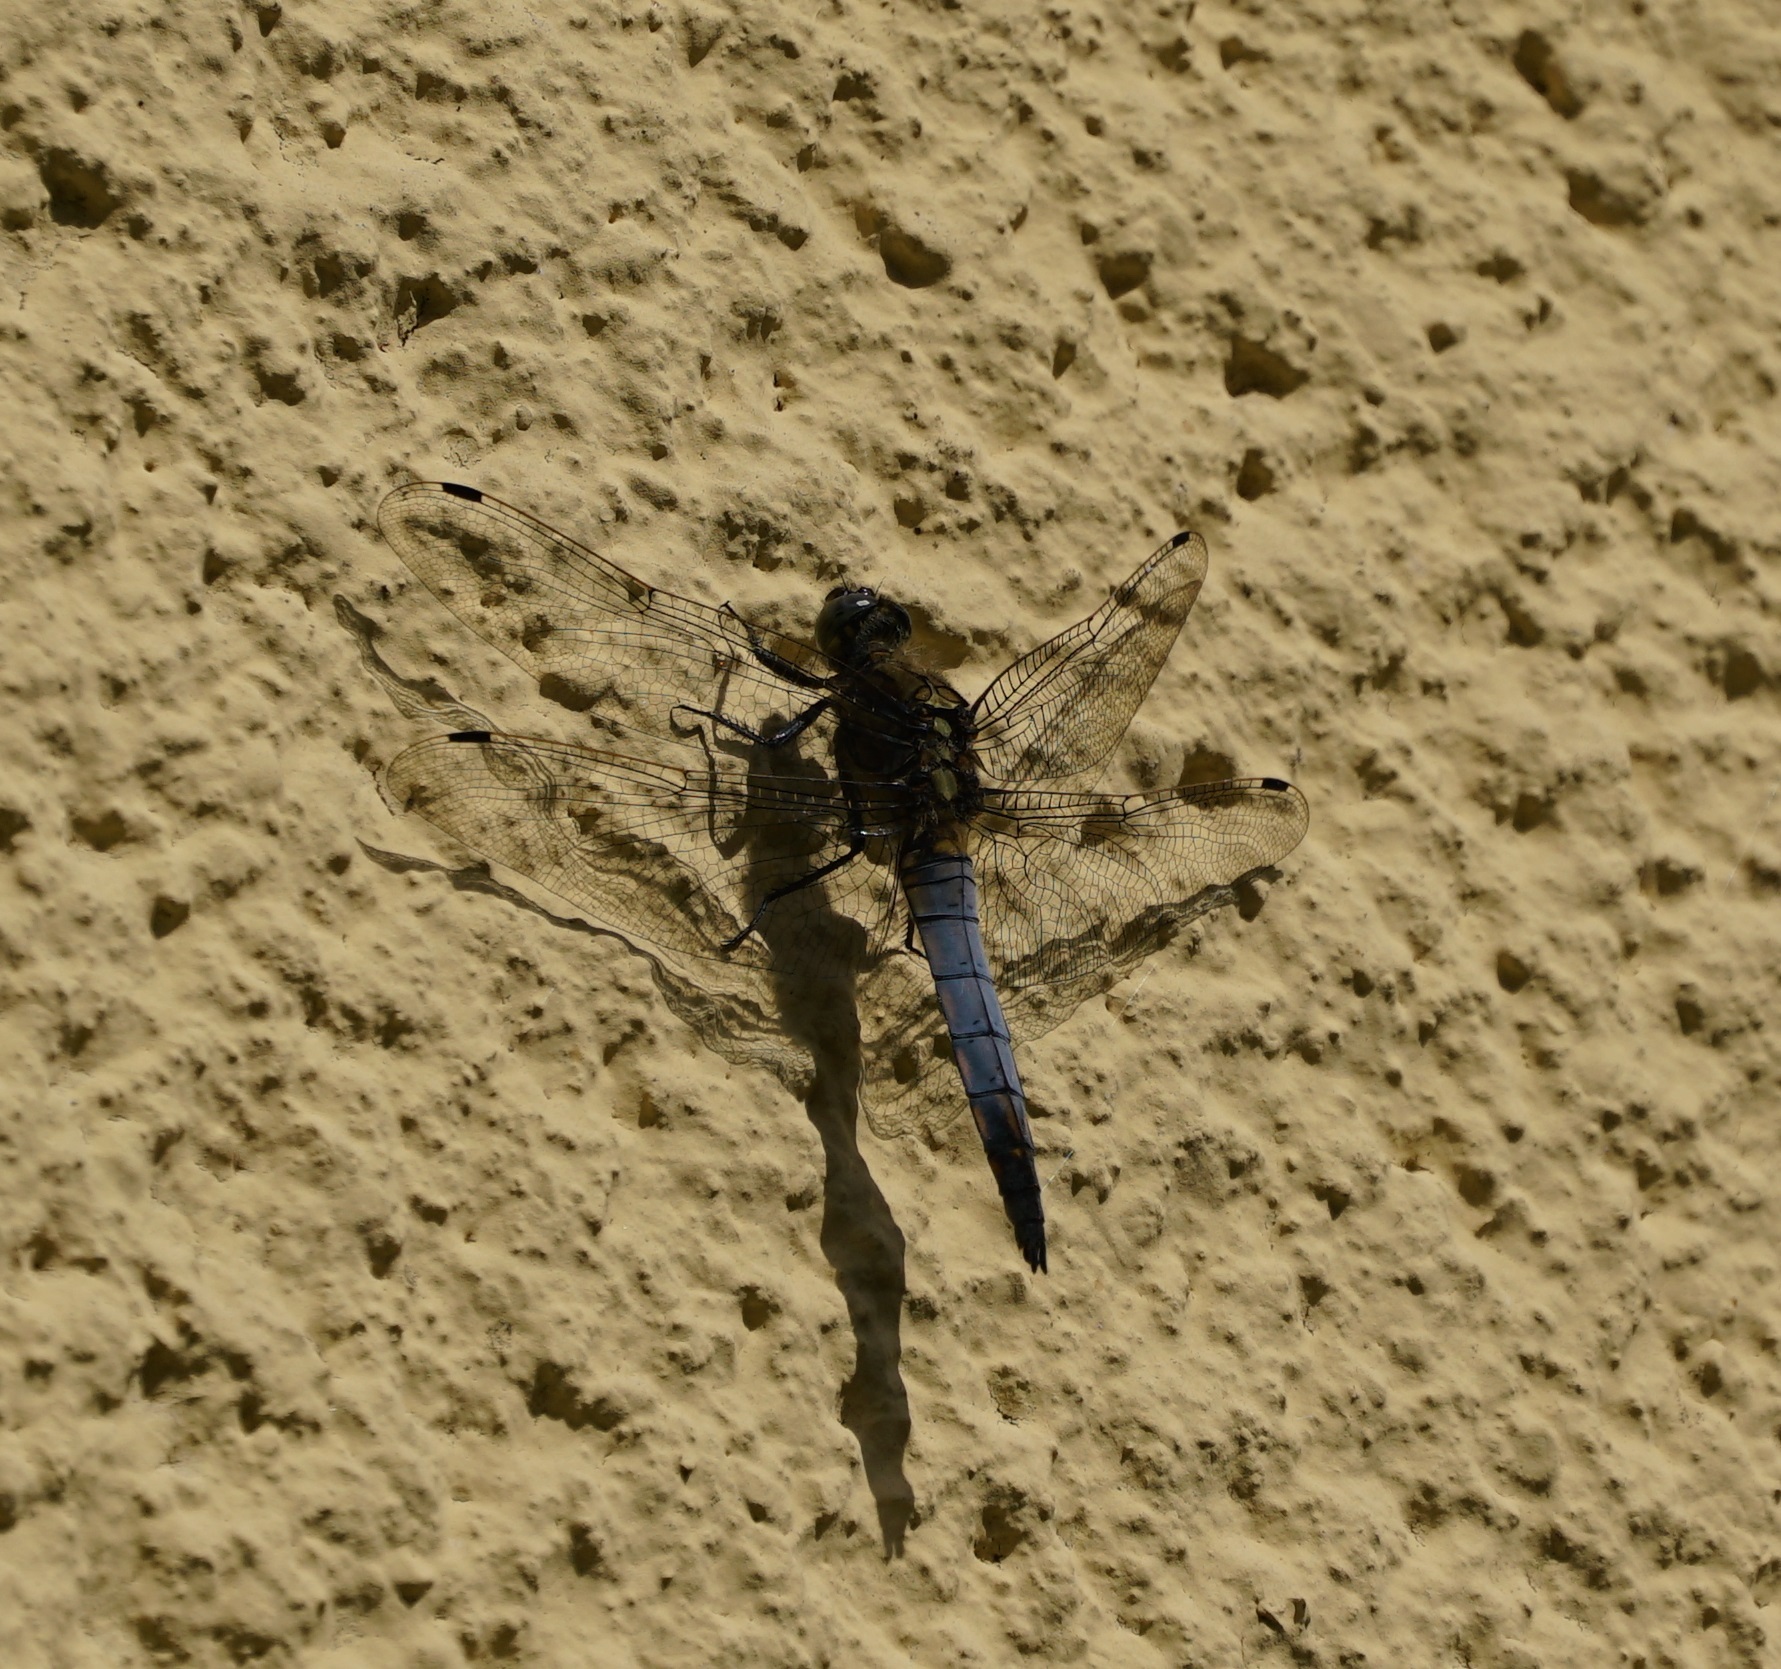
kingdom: Animalia
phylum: Arthropoda
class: Insecta
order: Odonata
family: Libellulidae
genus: Orthetrum
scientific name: Orthetrum cancellatum
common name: Black-tailed skimmer
